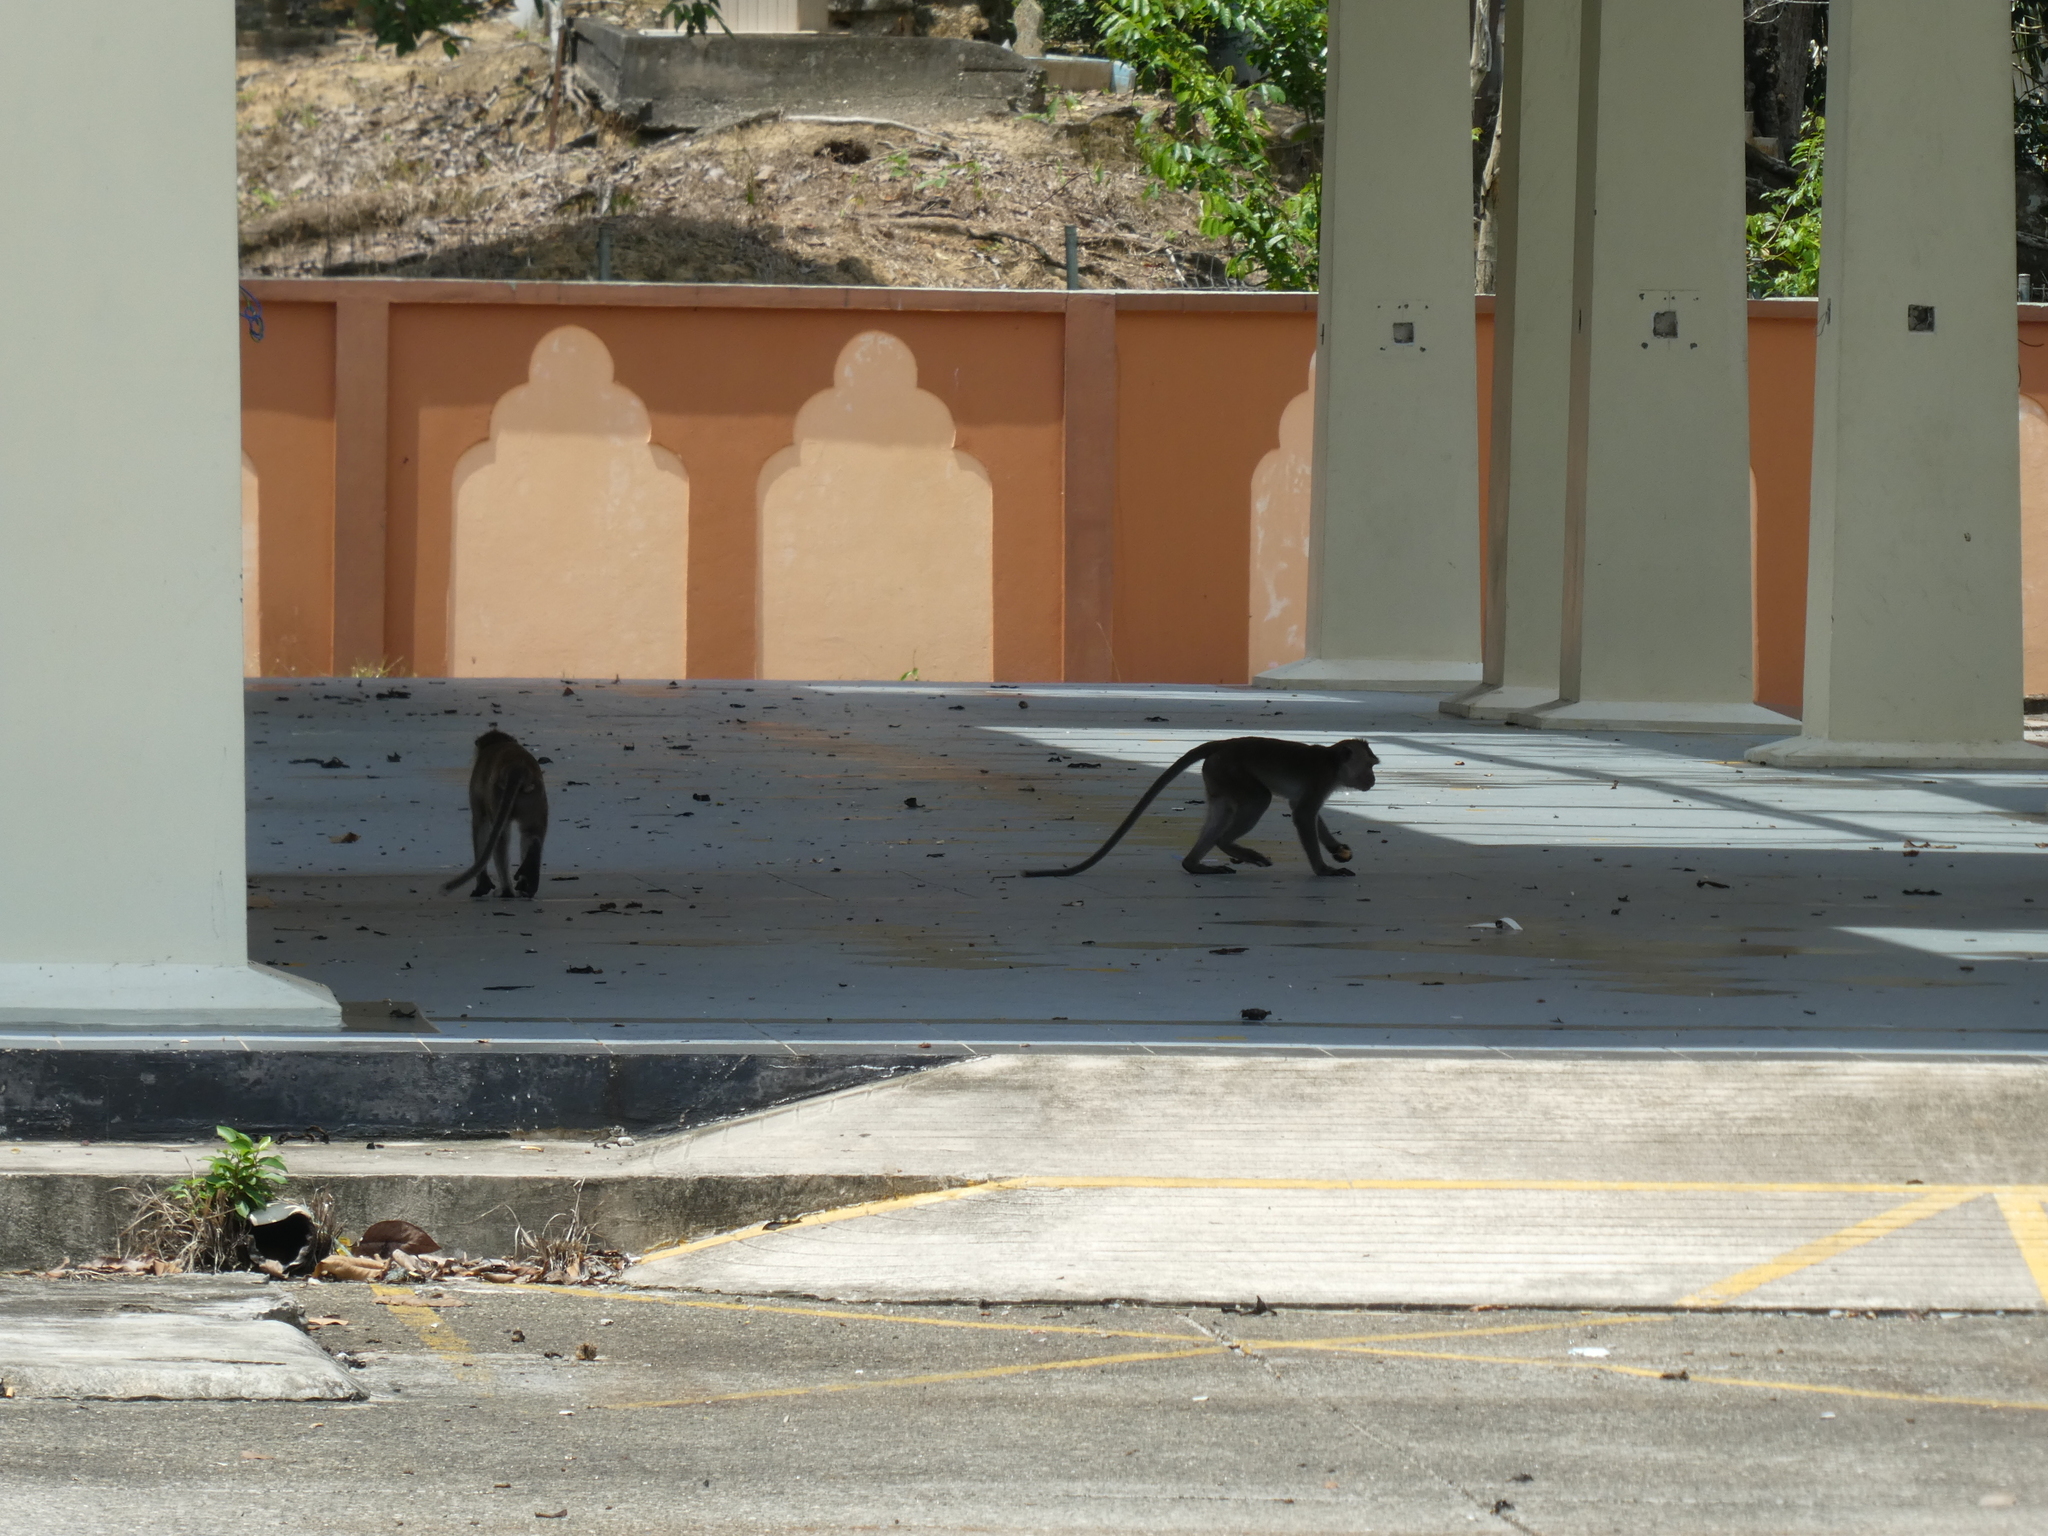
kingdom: Animalia
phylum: Chordata
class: Mammalia
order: Primates
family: Cercopithecidae
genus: Macaca
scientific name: Macaca fascicularis
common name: Crab-eating macaque
